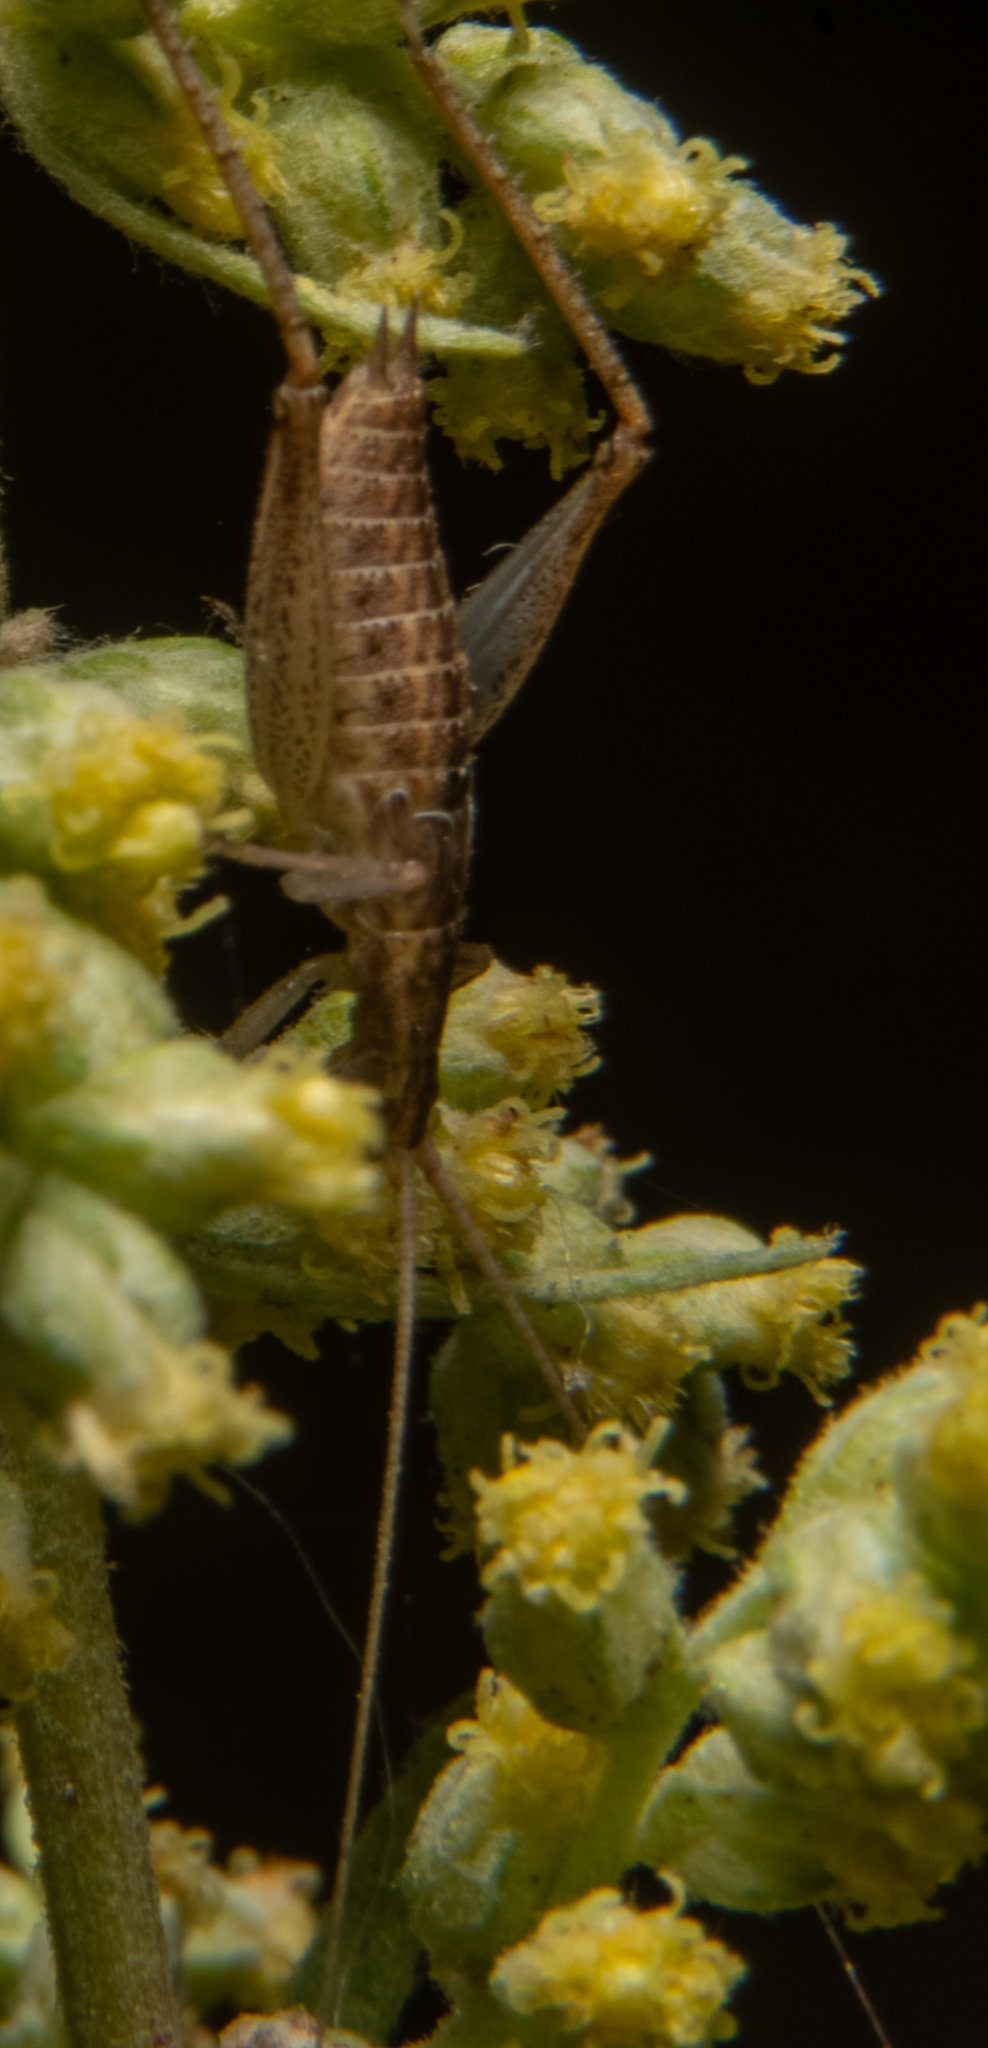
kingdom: Animalia
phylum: Arthropoda
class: Insecta
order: Orthoptera
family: Gryllidae
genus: Oecanthus
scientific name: Oecanthus californicus
